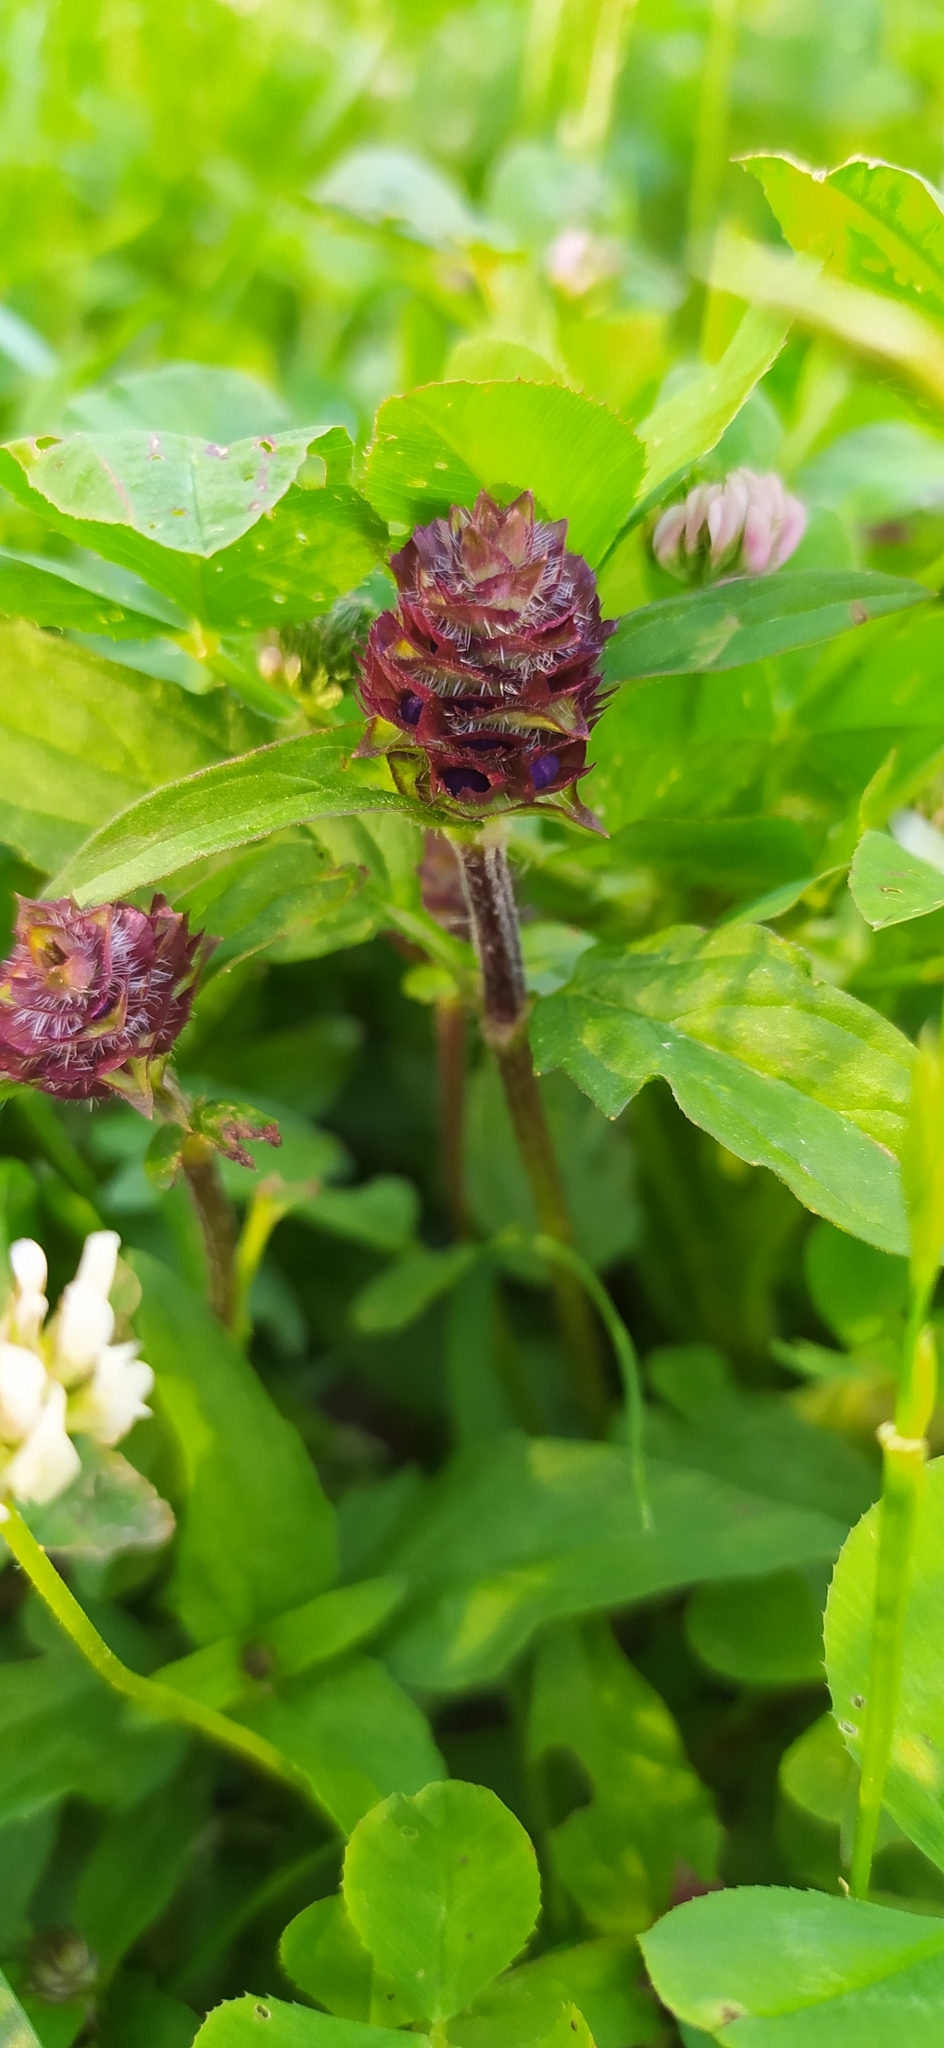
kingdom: Plantae
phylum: Tracheophyta
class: Magnoliopsida
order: Lamiales
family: Lamiaceae
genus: Prunella
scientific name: Prunella vulgaris
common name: Heal-all
